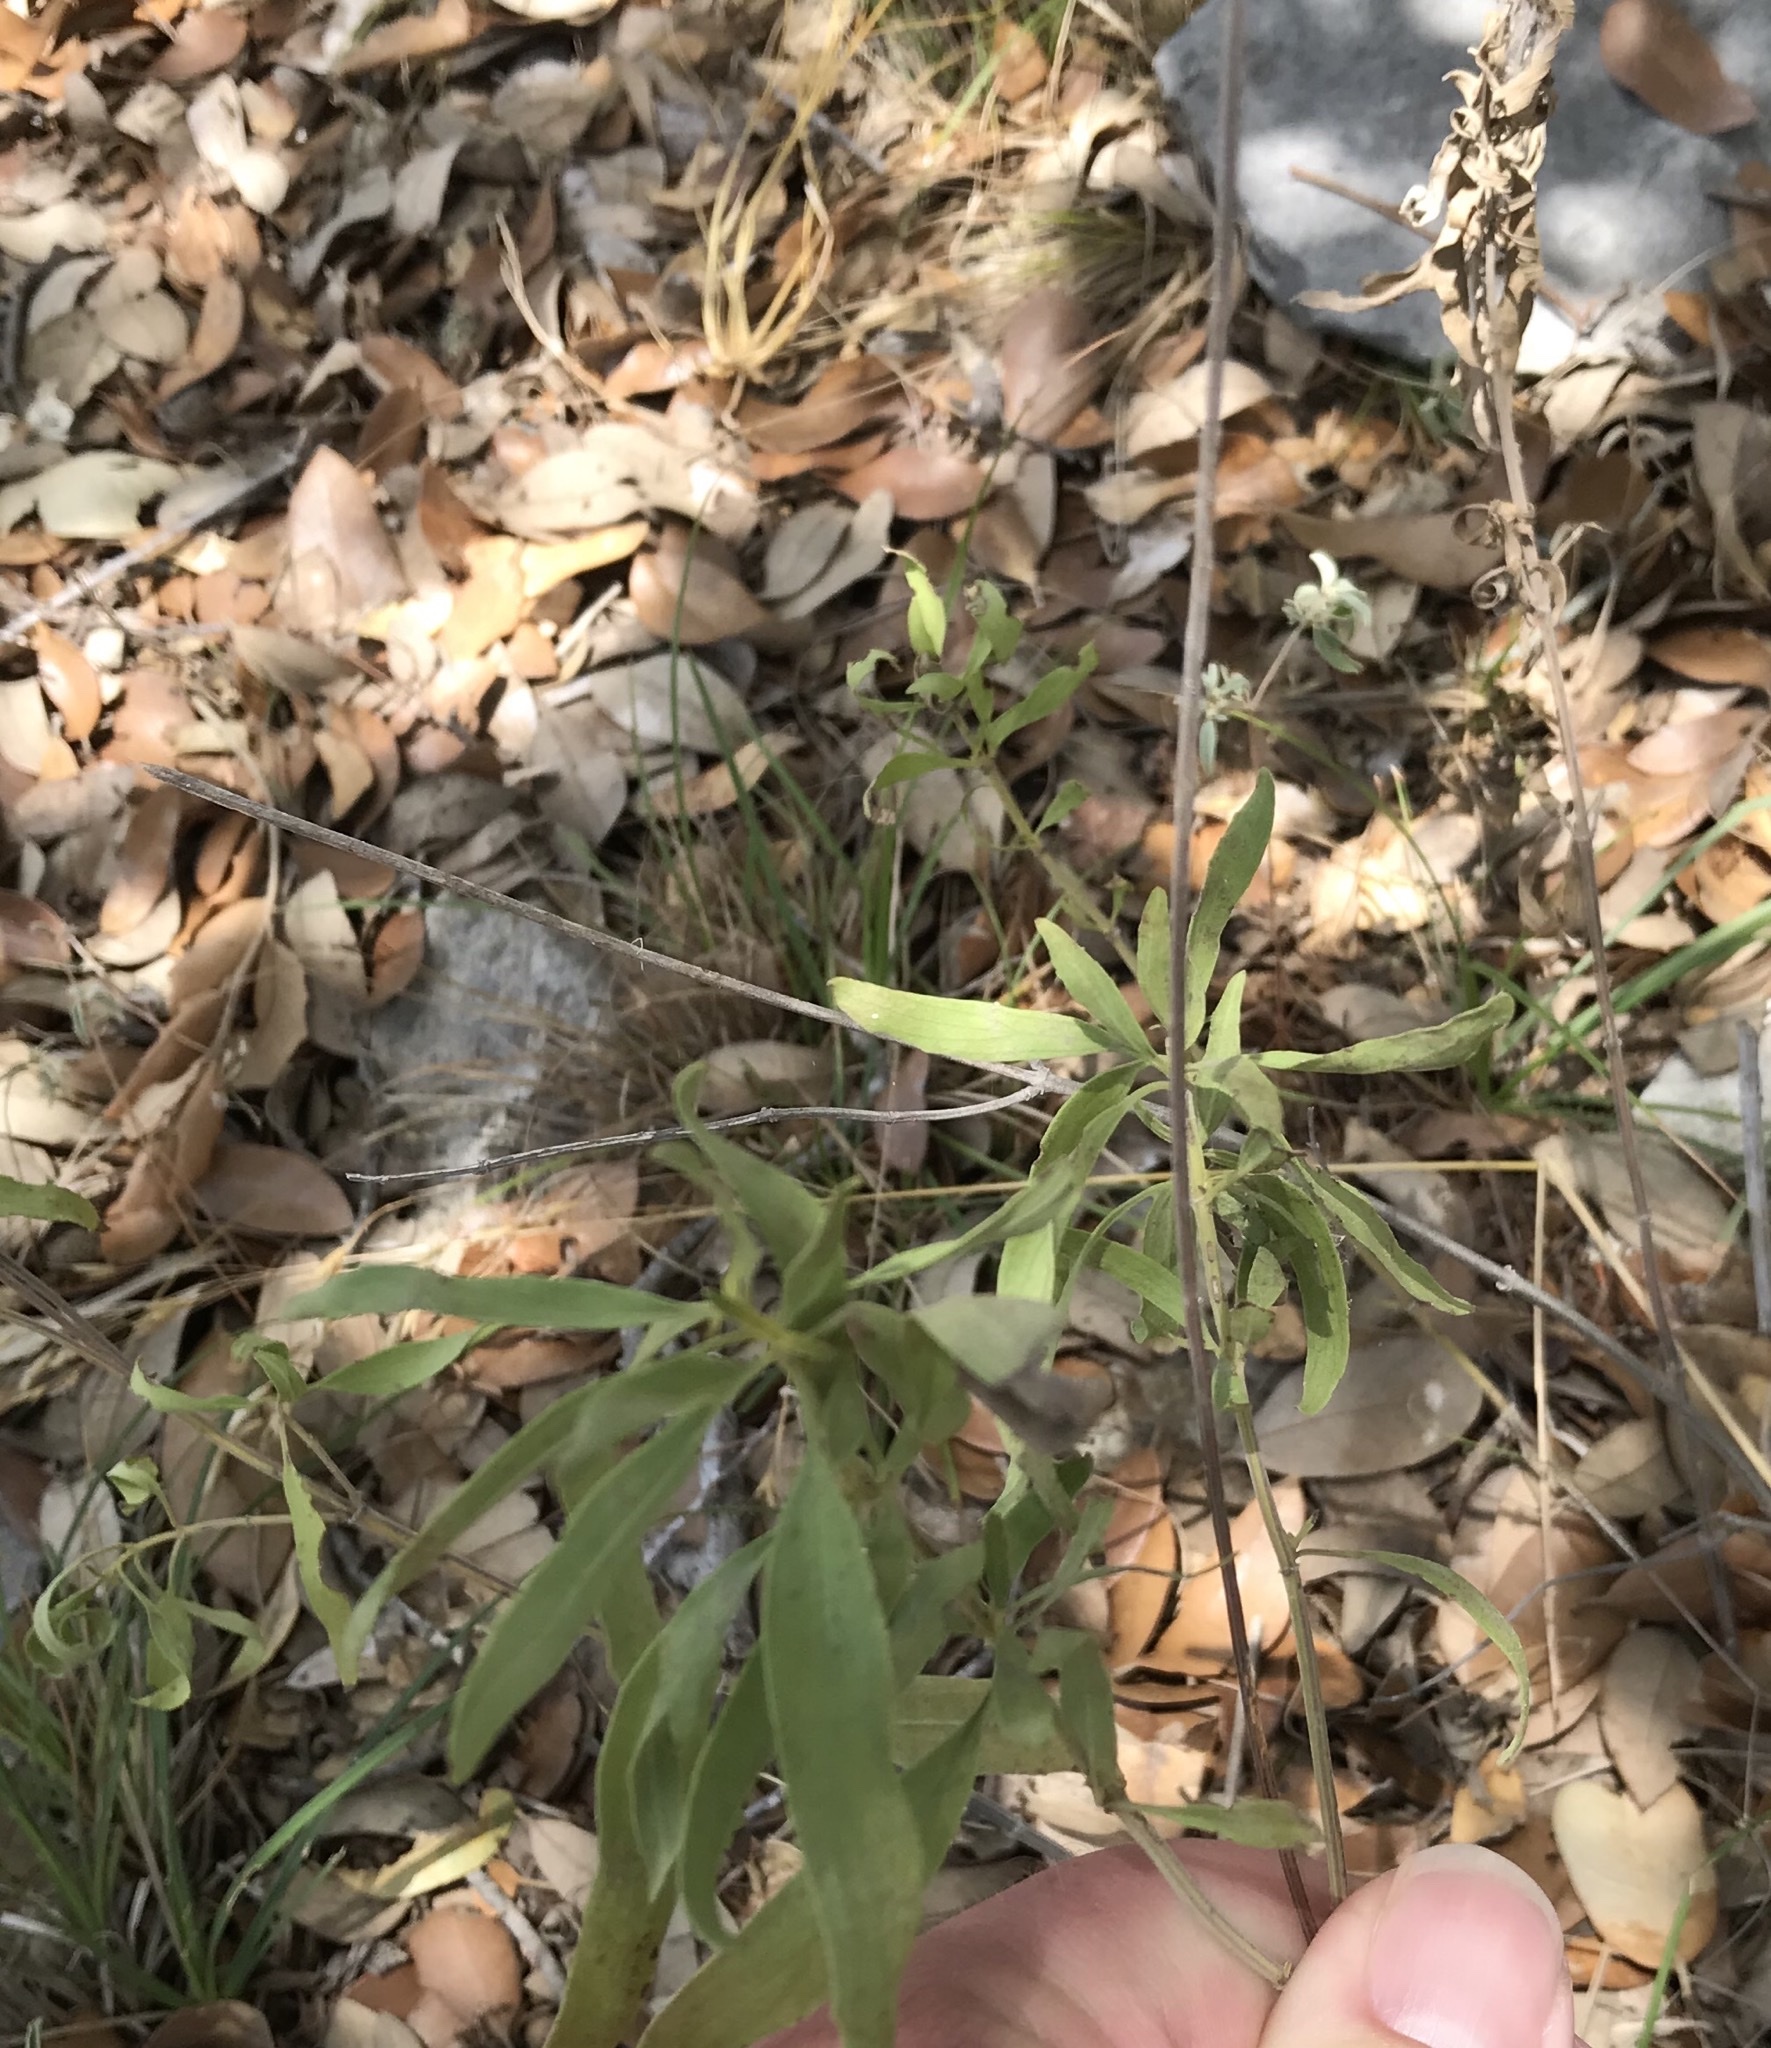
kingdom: Plantae
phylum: Tracheophyta
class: Magnoliopsida
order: Lamiales
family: Lamiaceae
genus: Salvia
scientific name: Salvia farinacea
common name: Mealy sage
